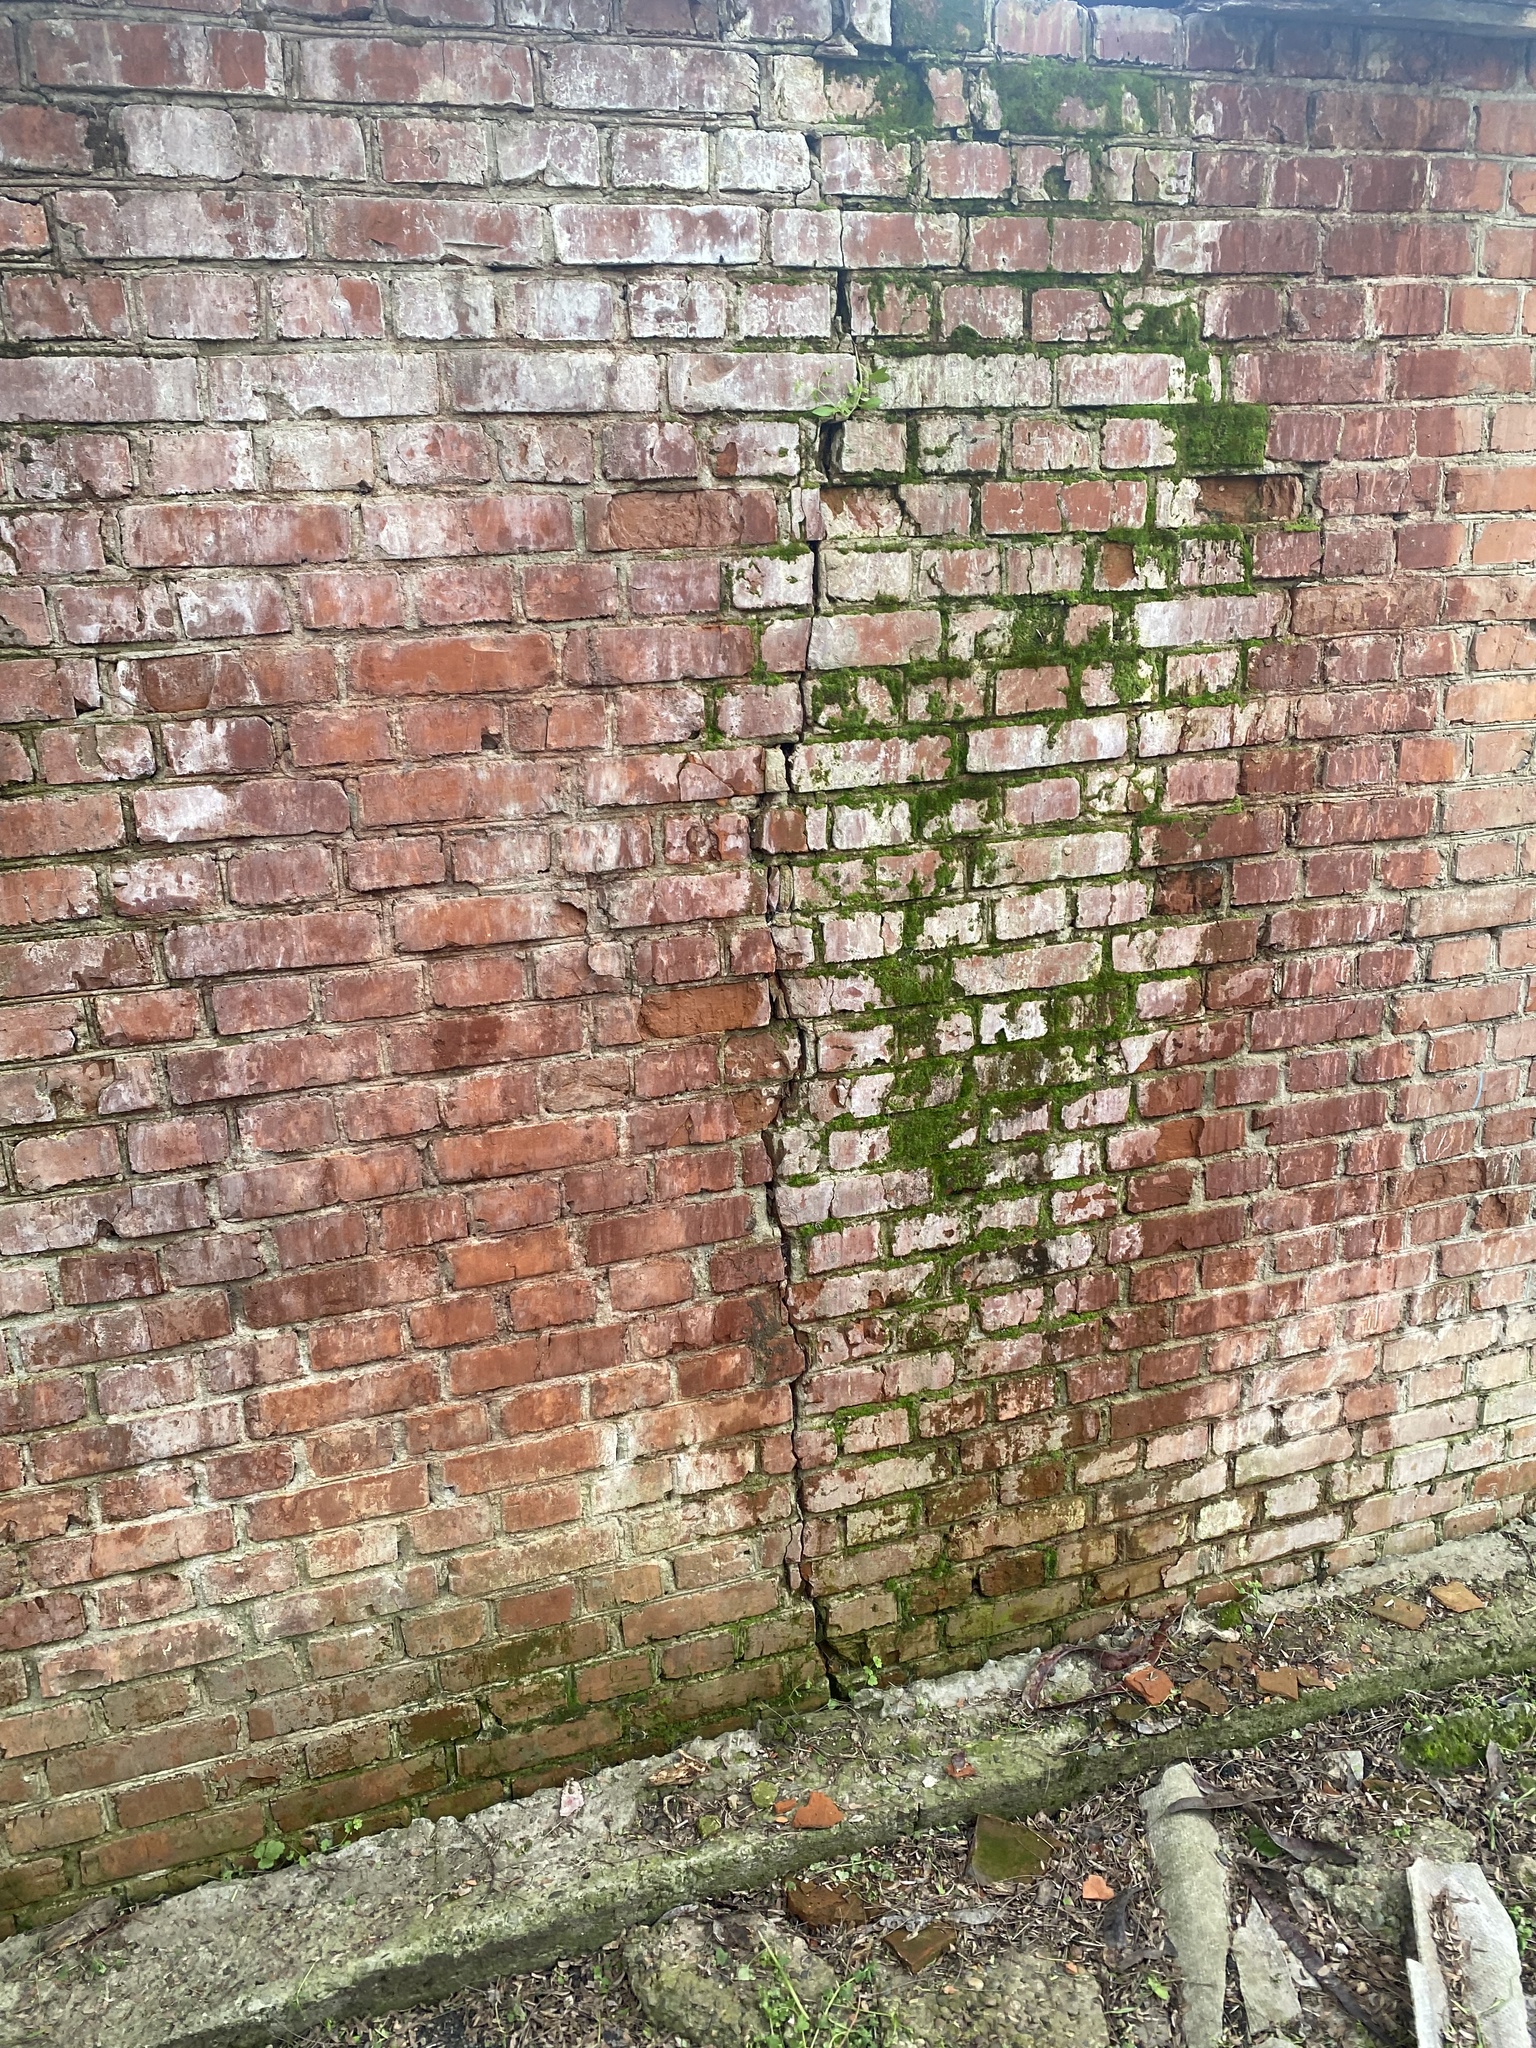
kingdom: Plantae
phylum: Tracheophyta
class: Magnoliopsida
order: Boraginales
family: Boraginaceae
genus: Myosotis
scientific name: Myosotis sparsiflora
